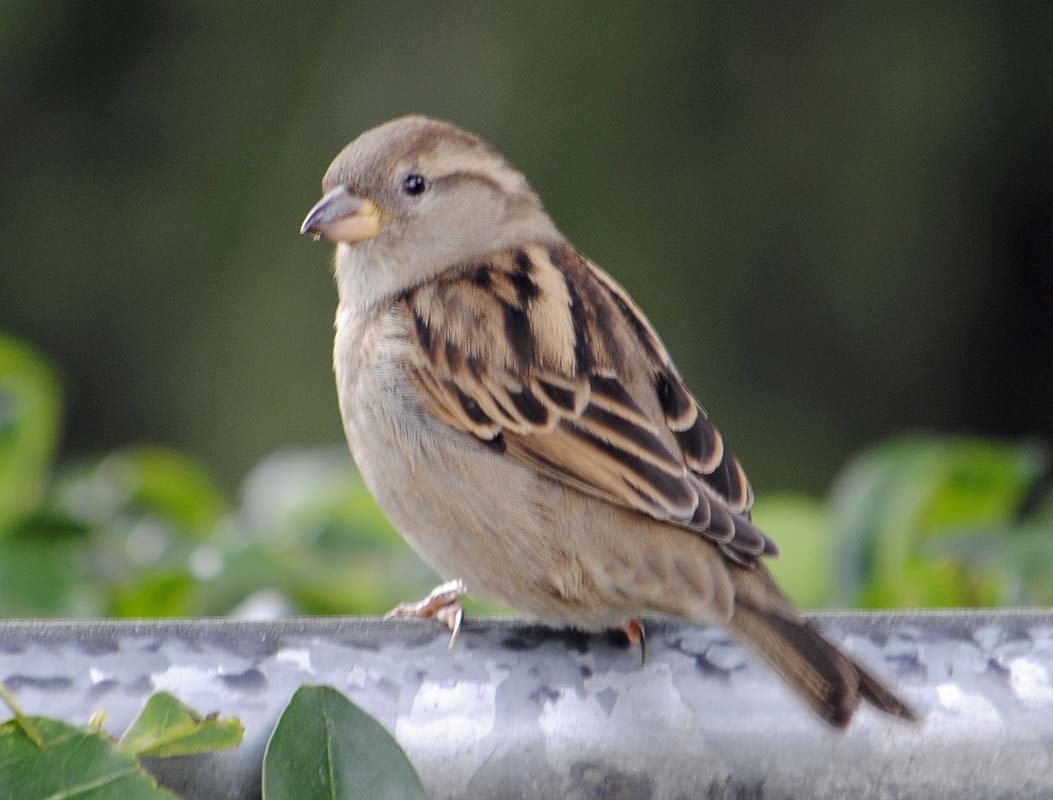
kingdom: Animalia
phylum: Chordata
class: Aves
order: Passeriformes
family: Passeridae
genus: Passer
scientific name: Passer domesticus
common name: House sparrow
